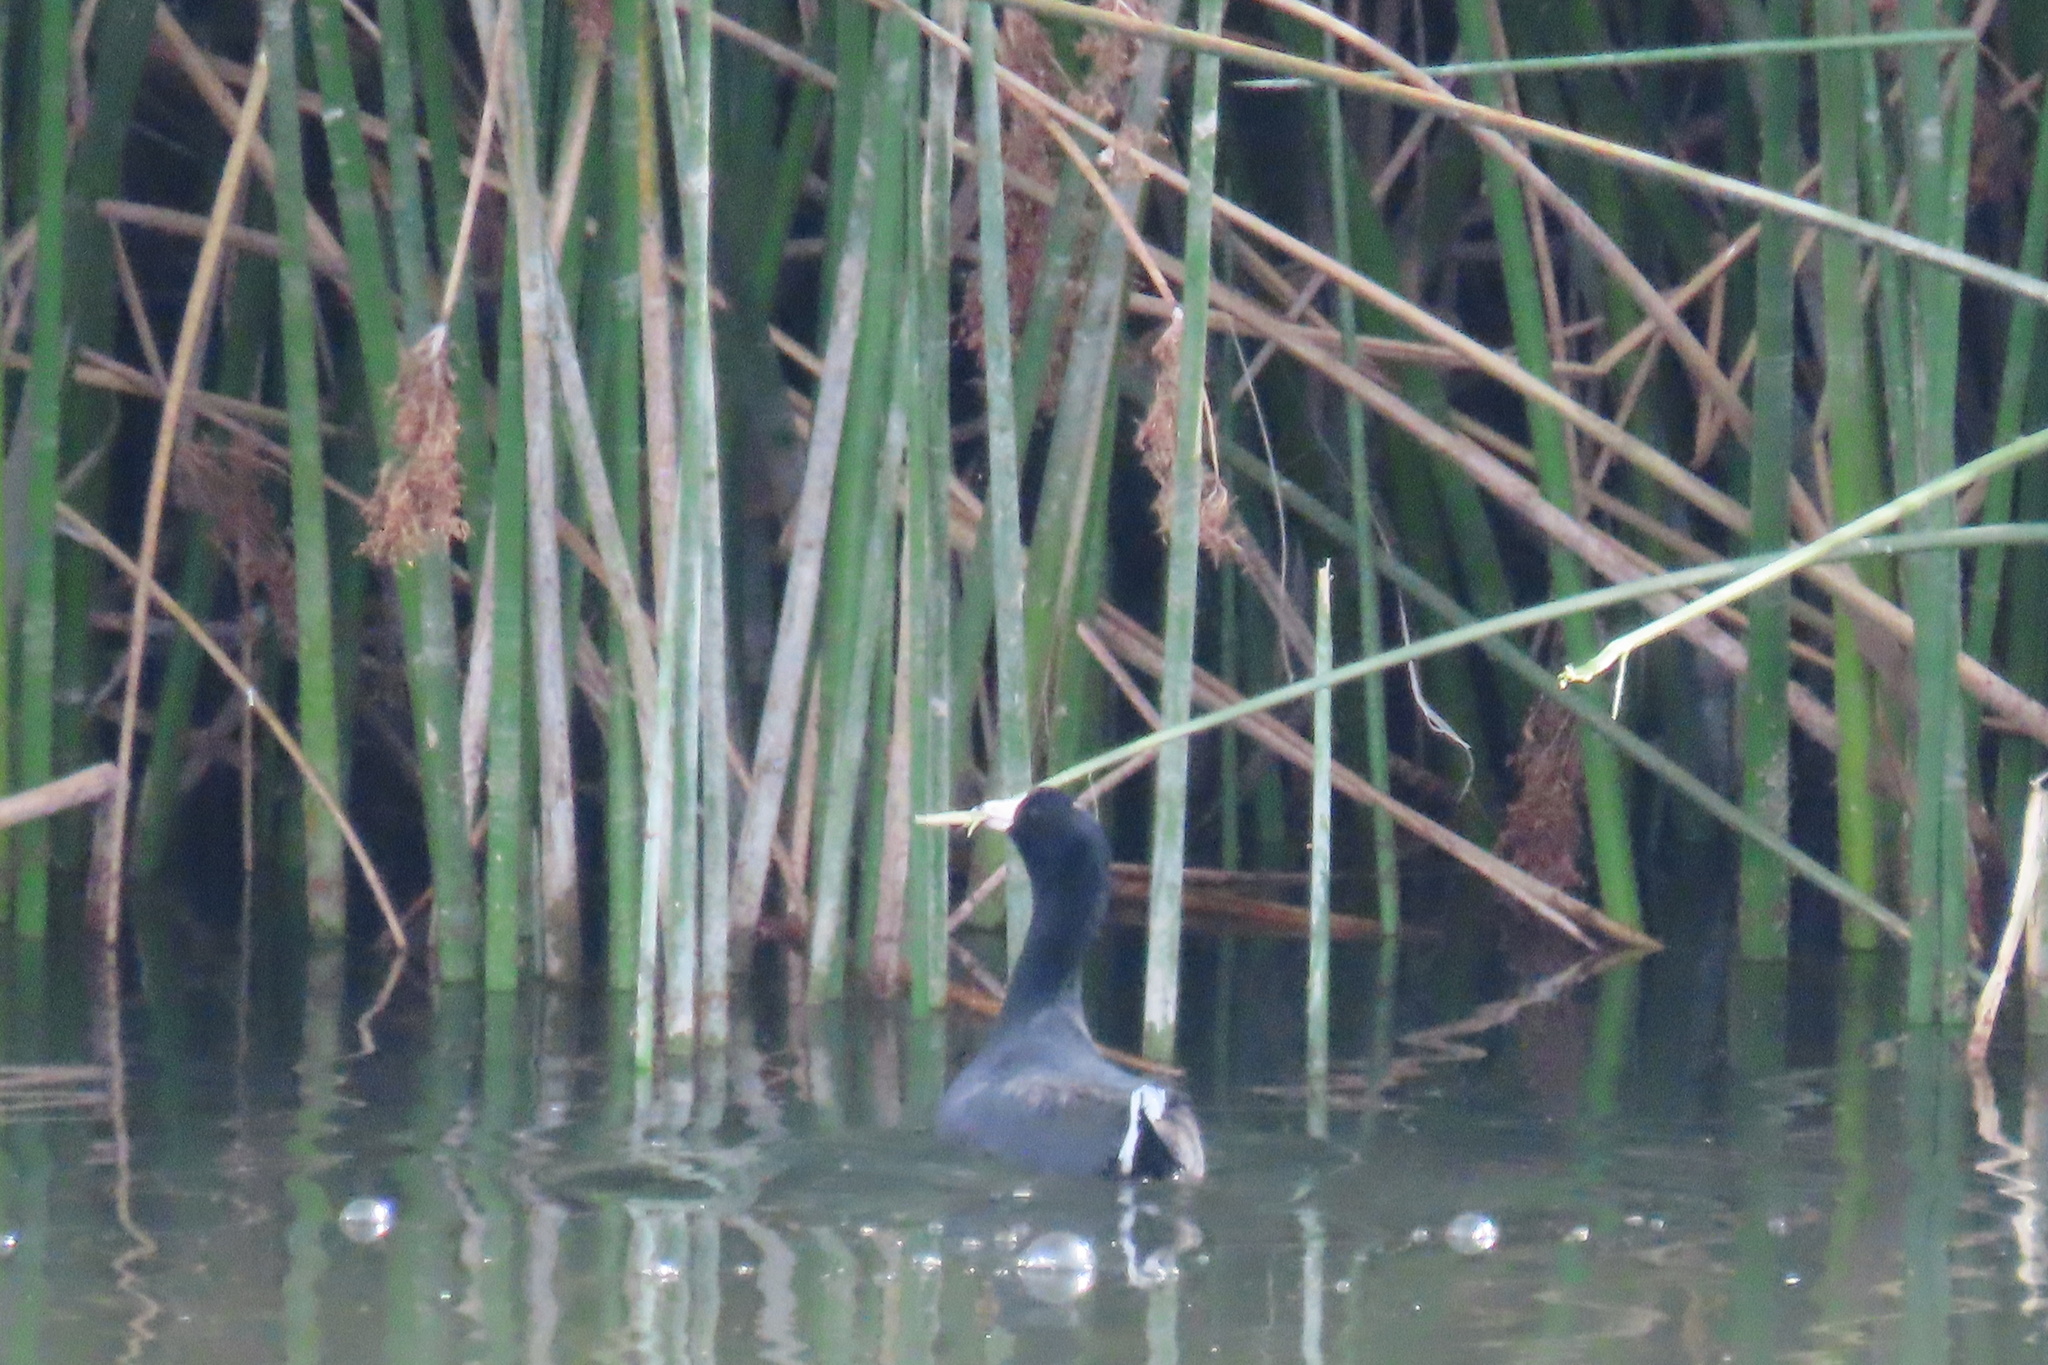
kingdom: Animalia
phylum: Chordata
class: Aves
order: Gruiformes
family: Rallidae
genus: Fulica
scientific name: Fulica americana
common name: American coot
